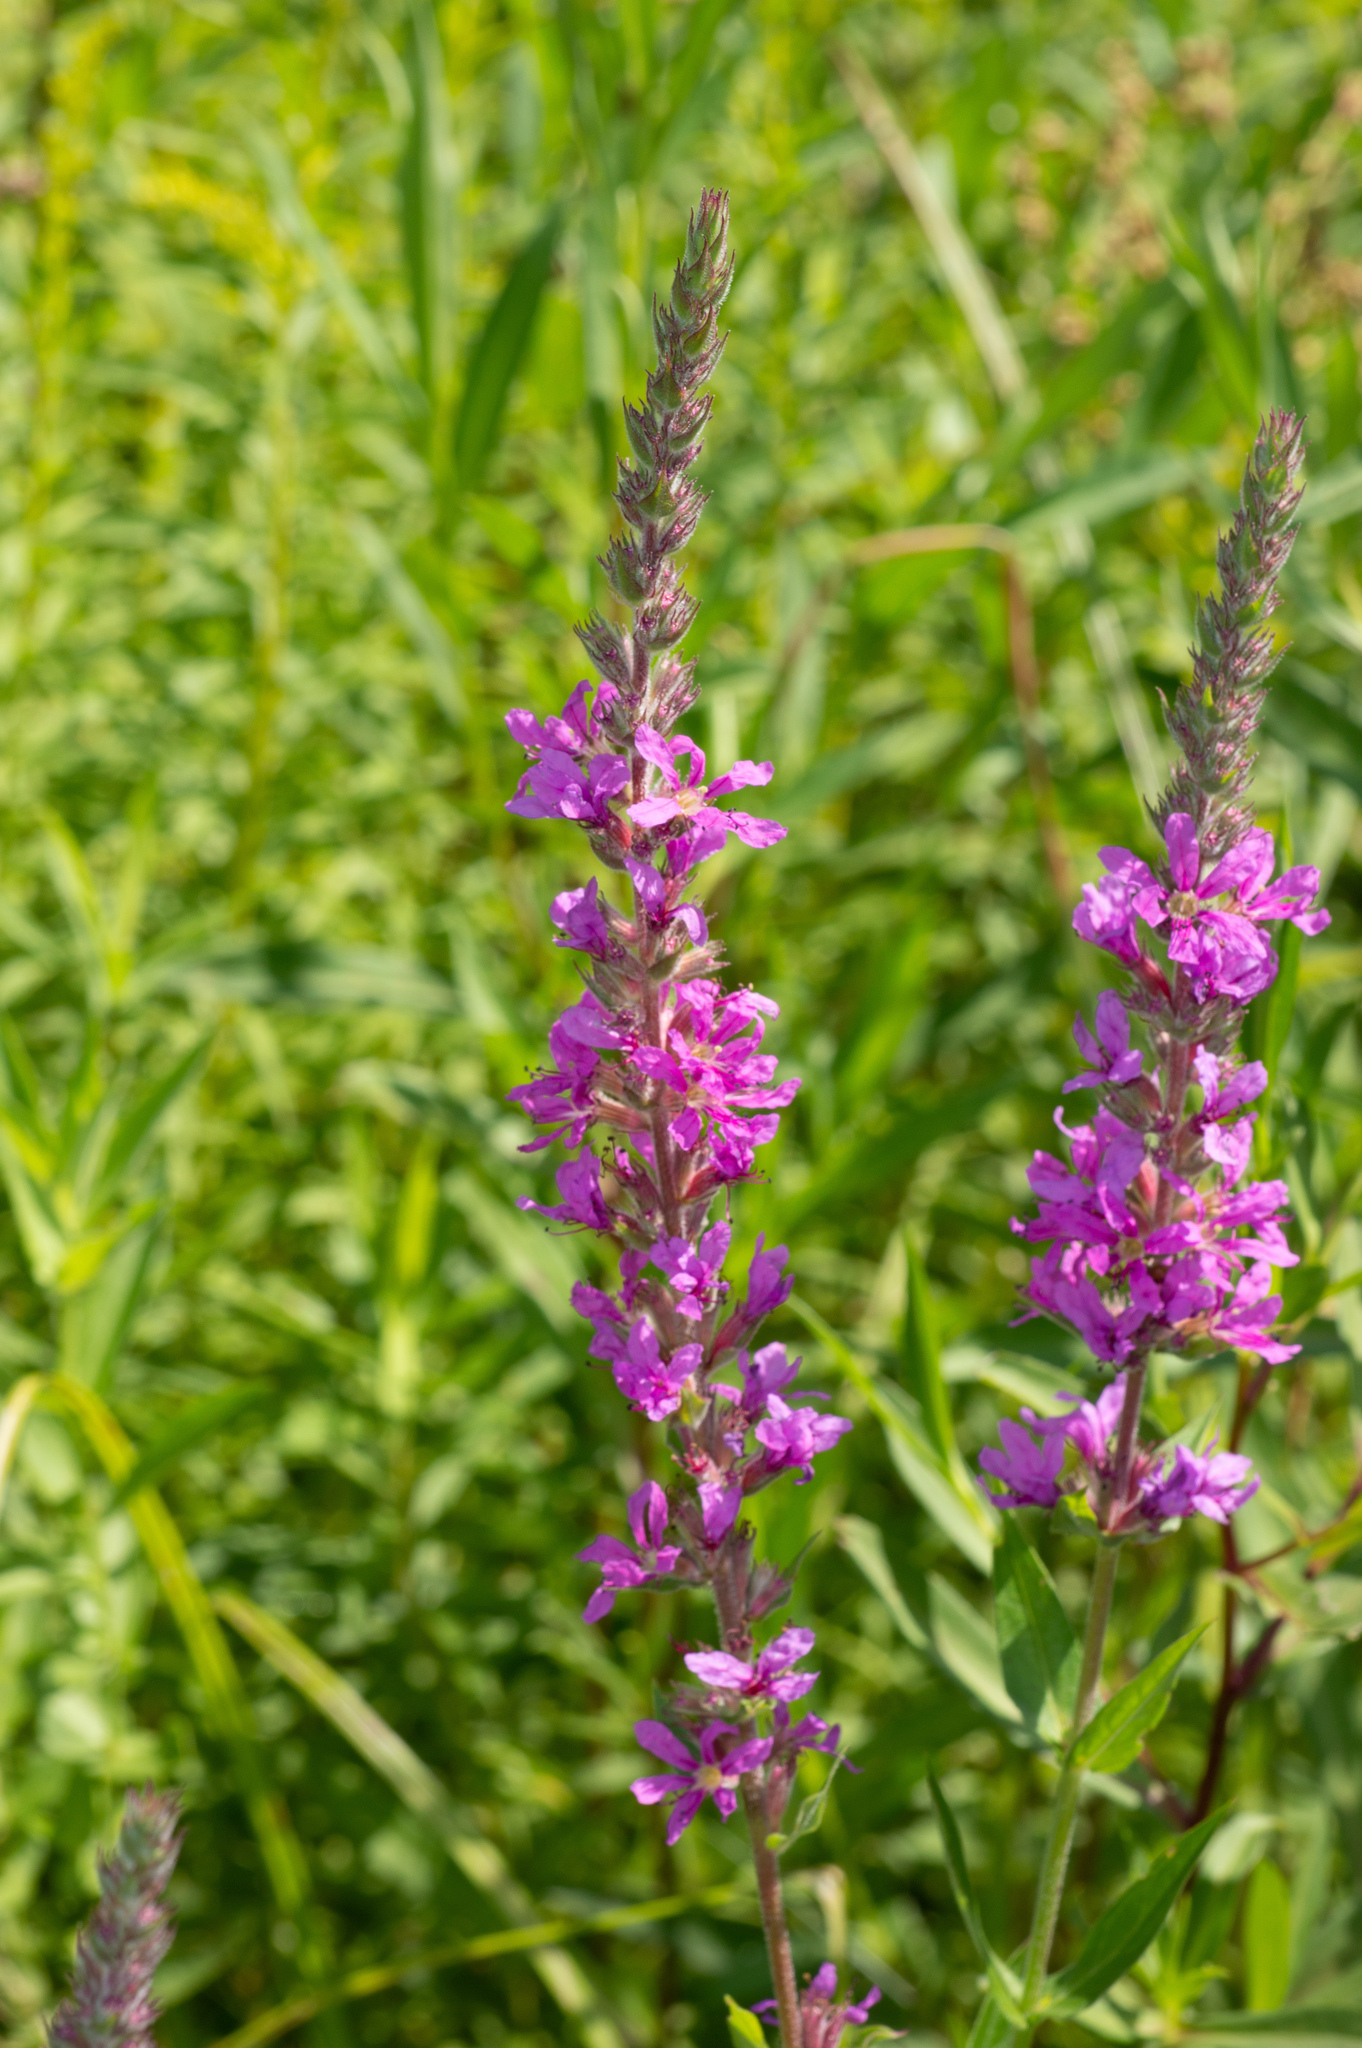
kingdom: Plantae
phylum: Tracheophyta
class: Magnoliopsida
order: Myrtales
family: Lythraceae
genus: Lythrum
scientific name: Lythrum salicaria
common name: Purple loosestrife
